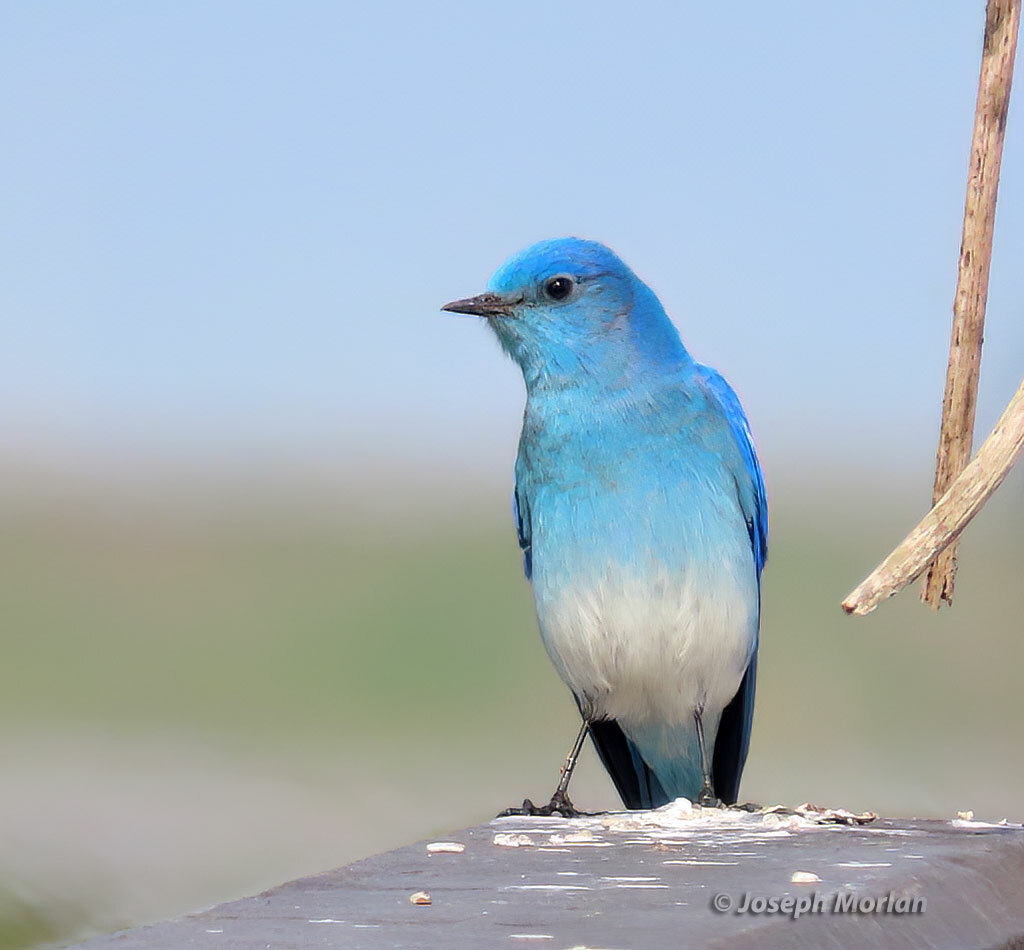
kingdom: Animalia
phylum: Chordata
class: Aves
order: Passeriformes
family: Turdidae
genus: Sialia
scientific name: Sialia currucoides
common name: Mountain bluebird
